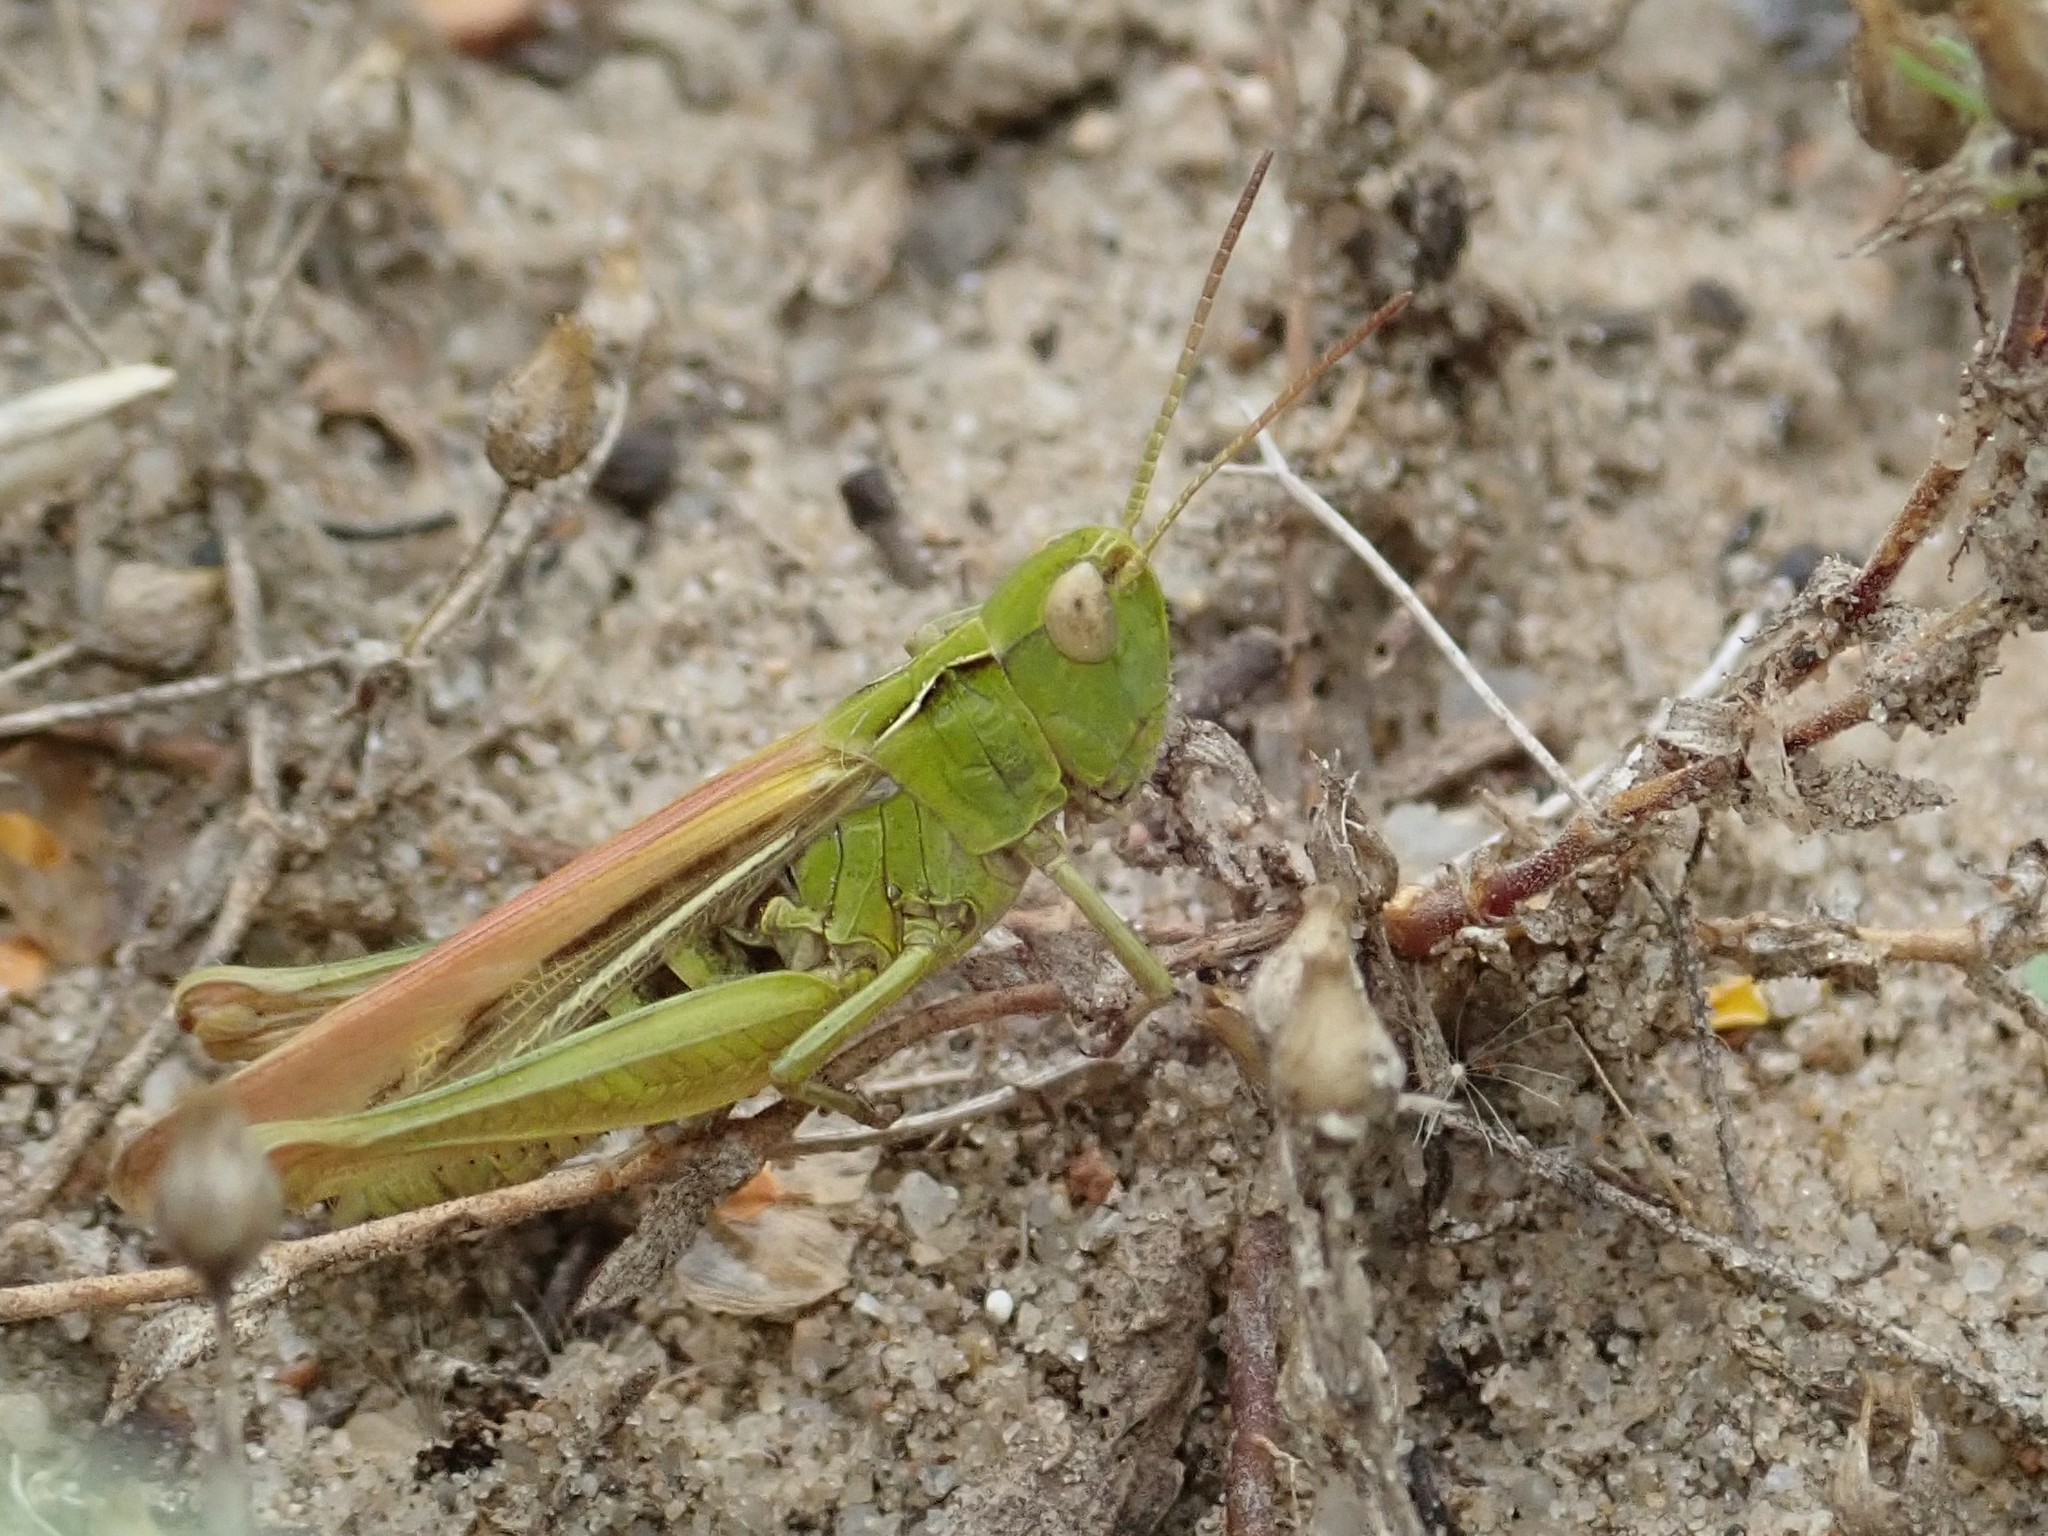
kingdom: Animalia
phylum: Arthropoda
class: Insecta
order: Orthoptera
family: Acrididae
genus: Chorthippus
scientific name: Chorthippus biguttulus
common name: Bow-winged grasshopper
